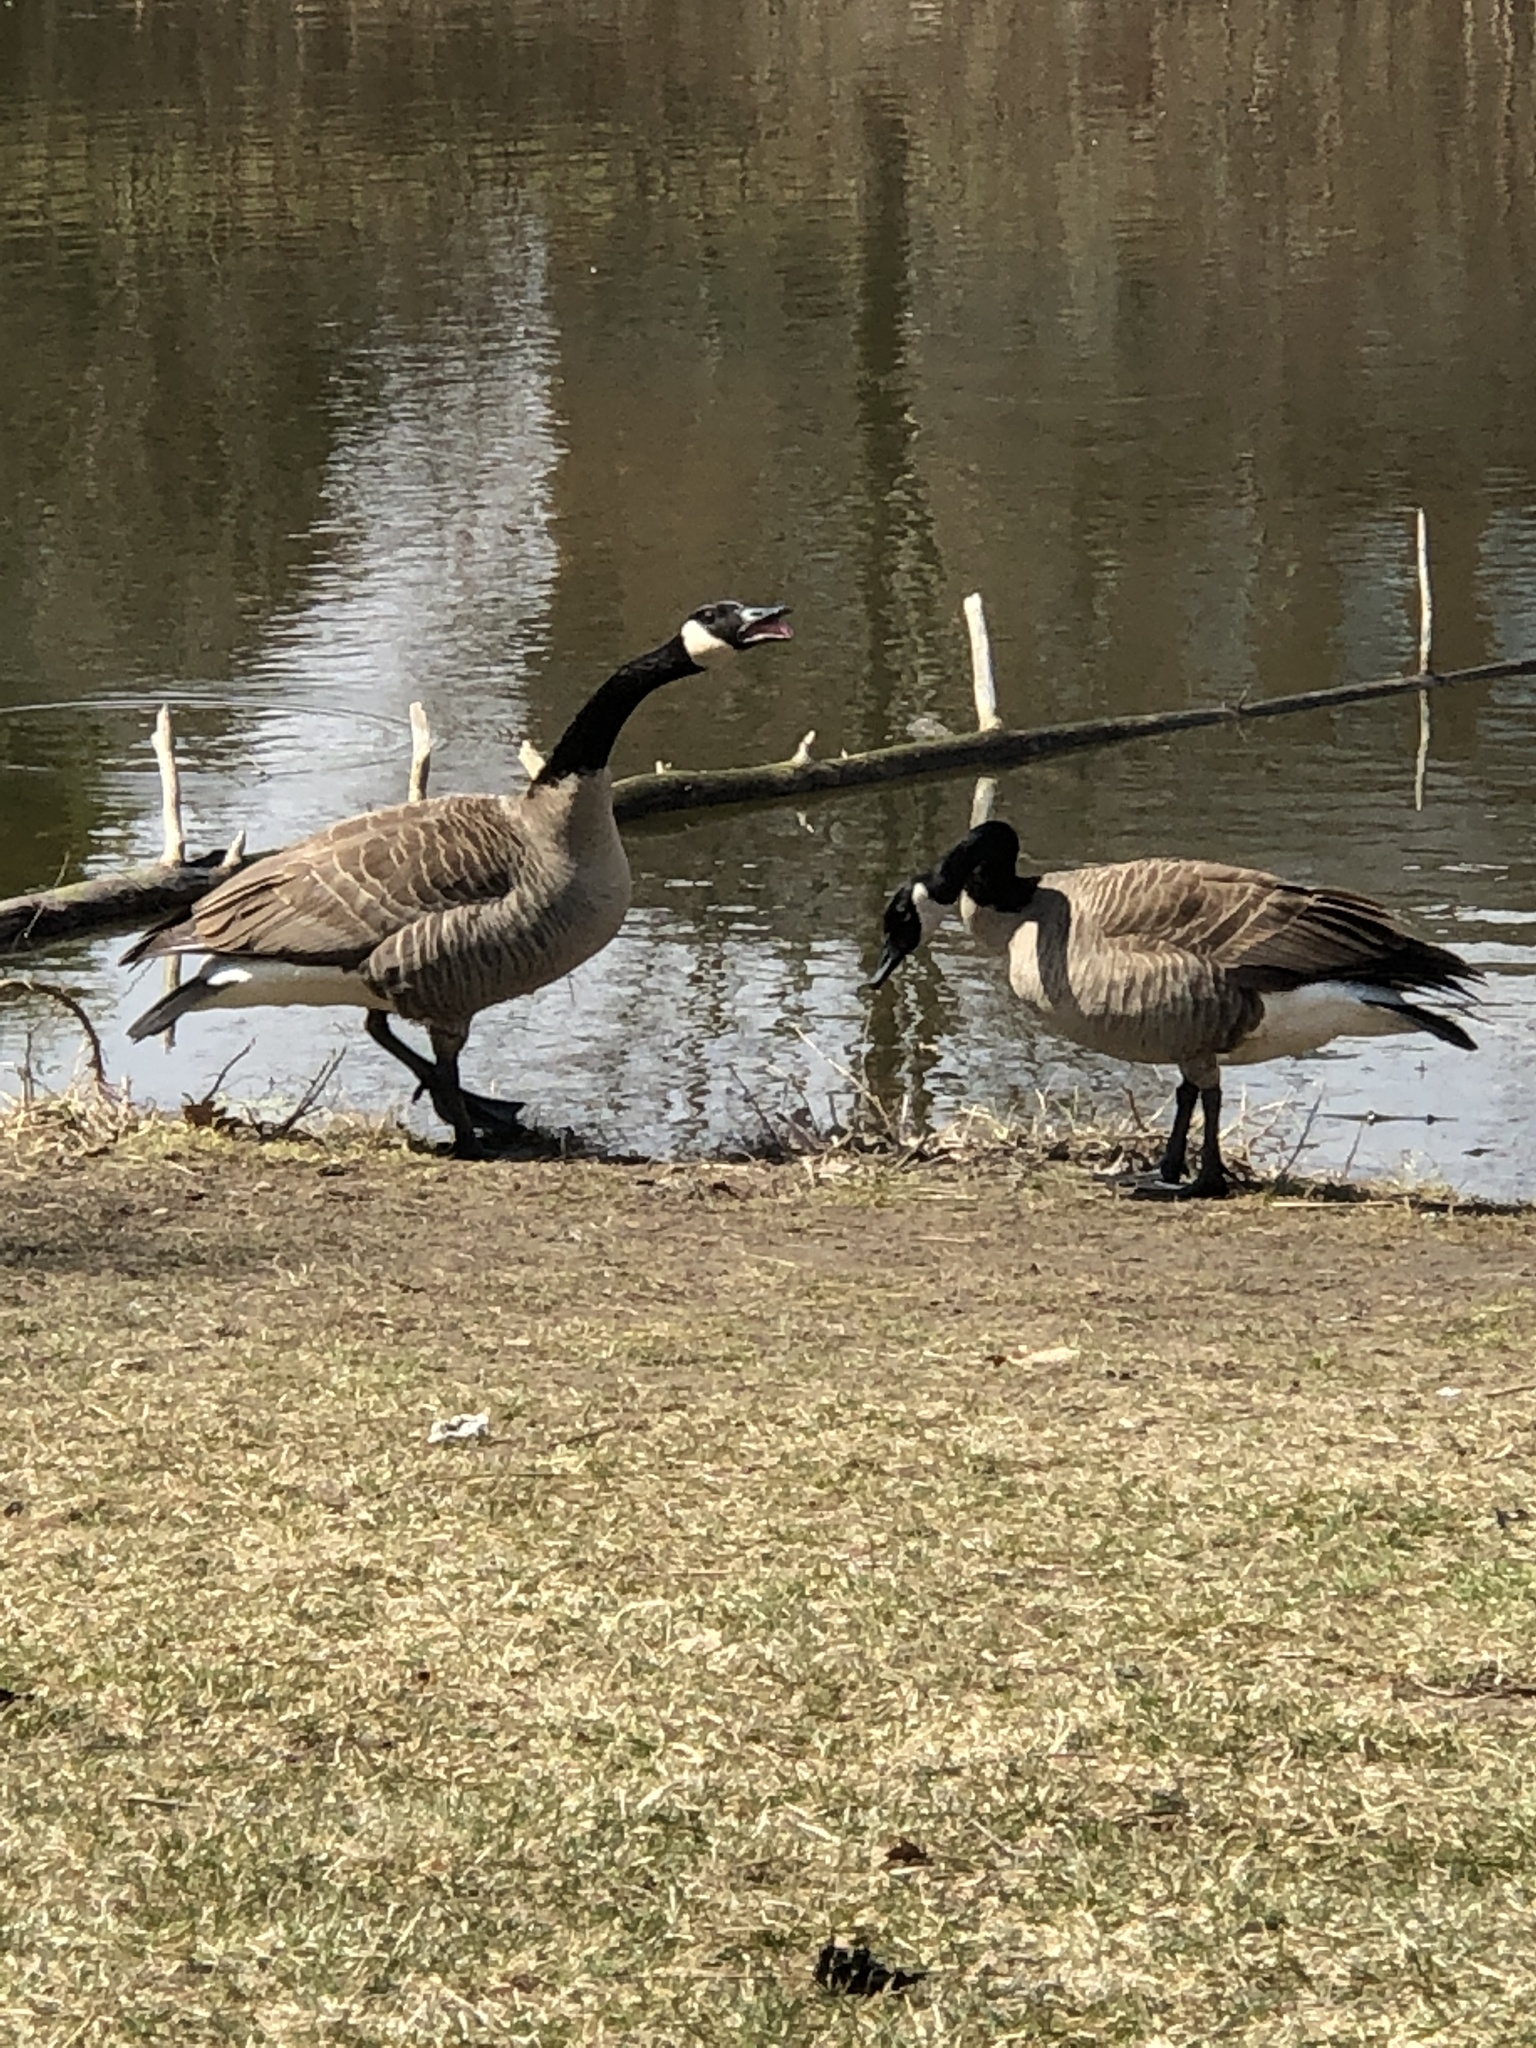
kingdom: Animalia
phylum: Chordata
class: Aves
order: Anseriformes
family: Anatidae
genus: Branta
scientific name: Branta canadensis
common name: Canada goose
